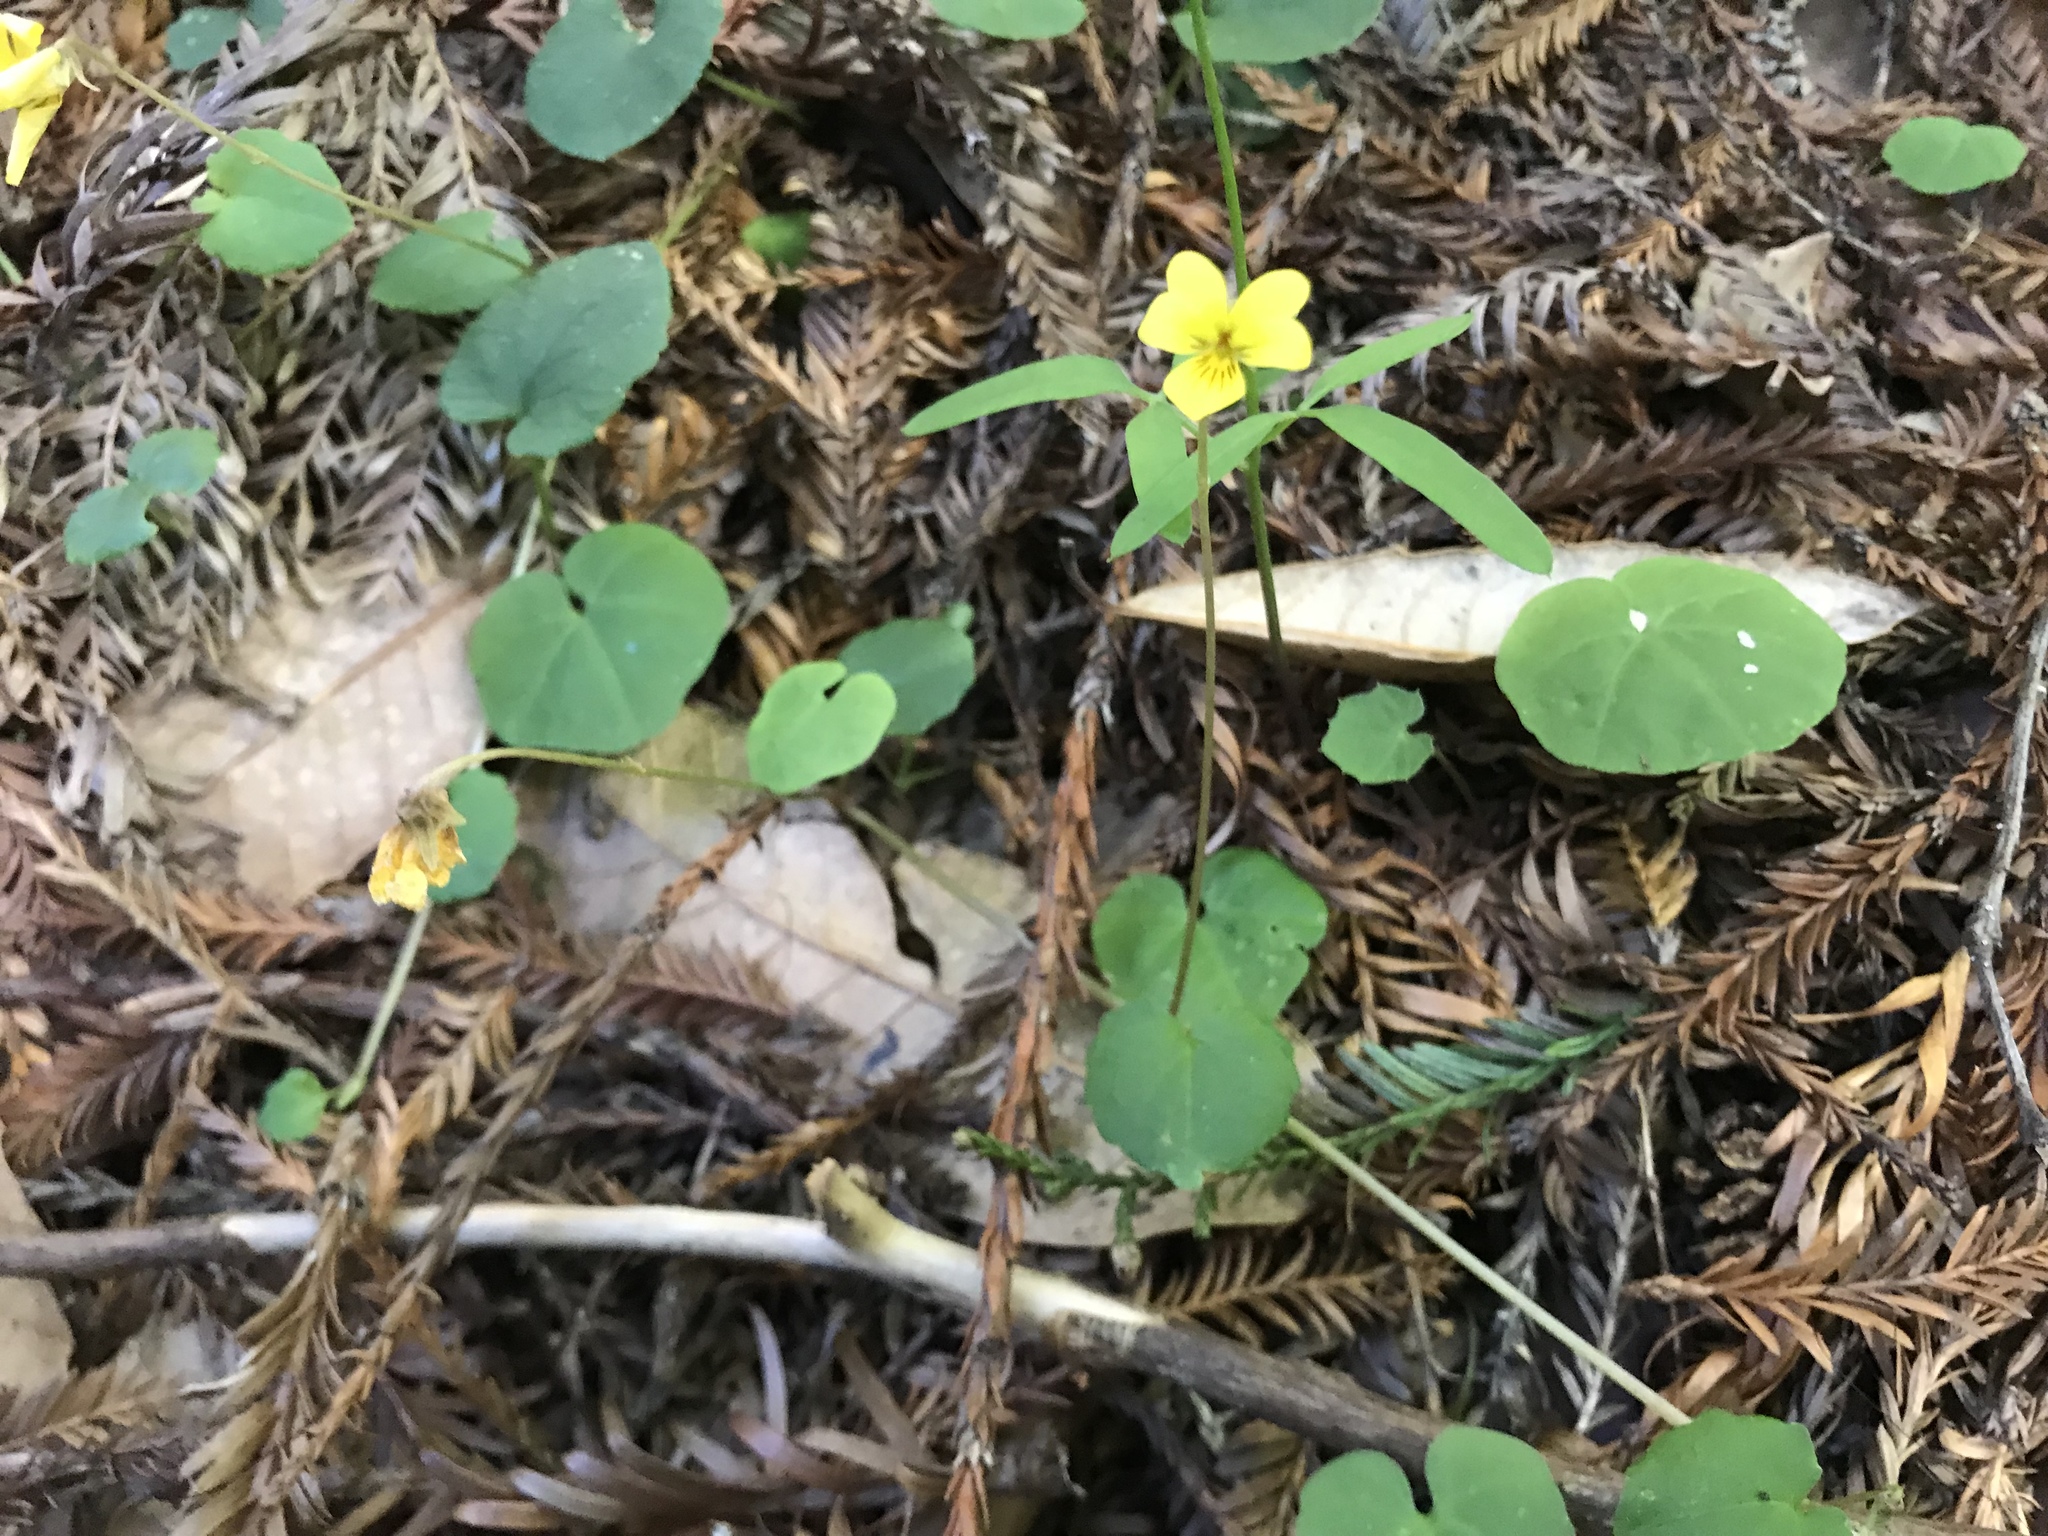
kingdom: Plantae
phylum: Tracheophyta
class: Magnoliopsida
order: Malpighiales
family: Violaceae
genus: Viola
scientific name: Viola sempervirens
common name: Evergreen violet
